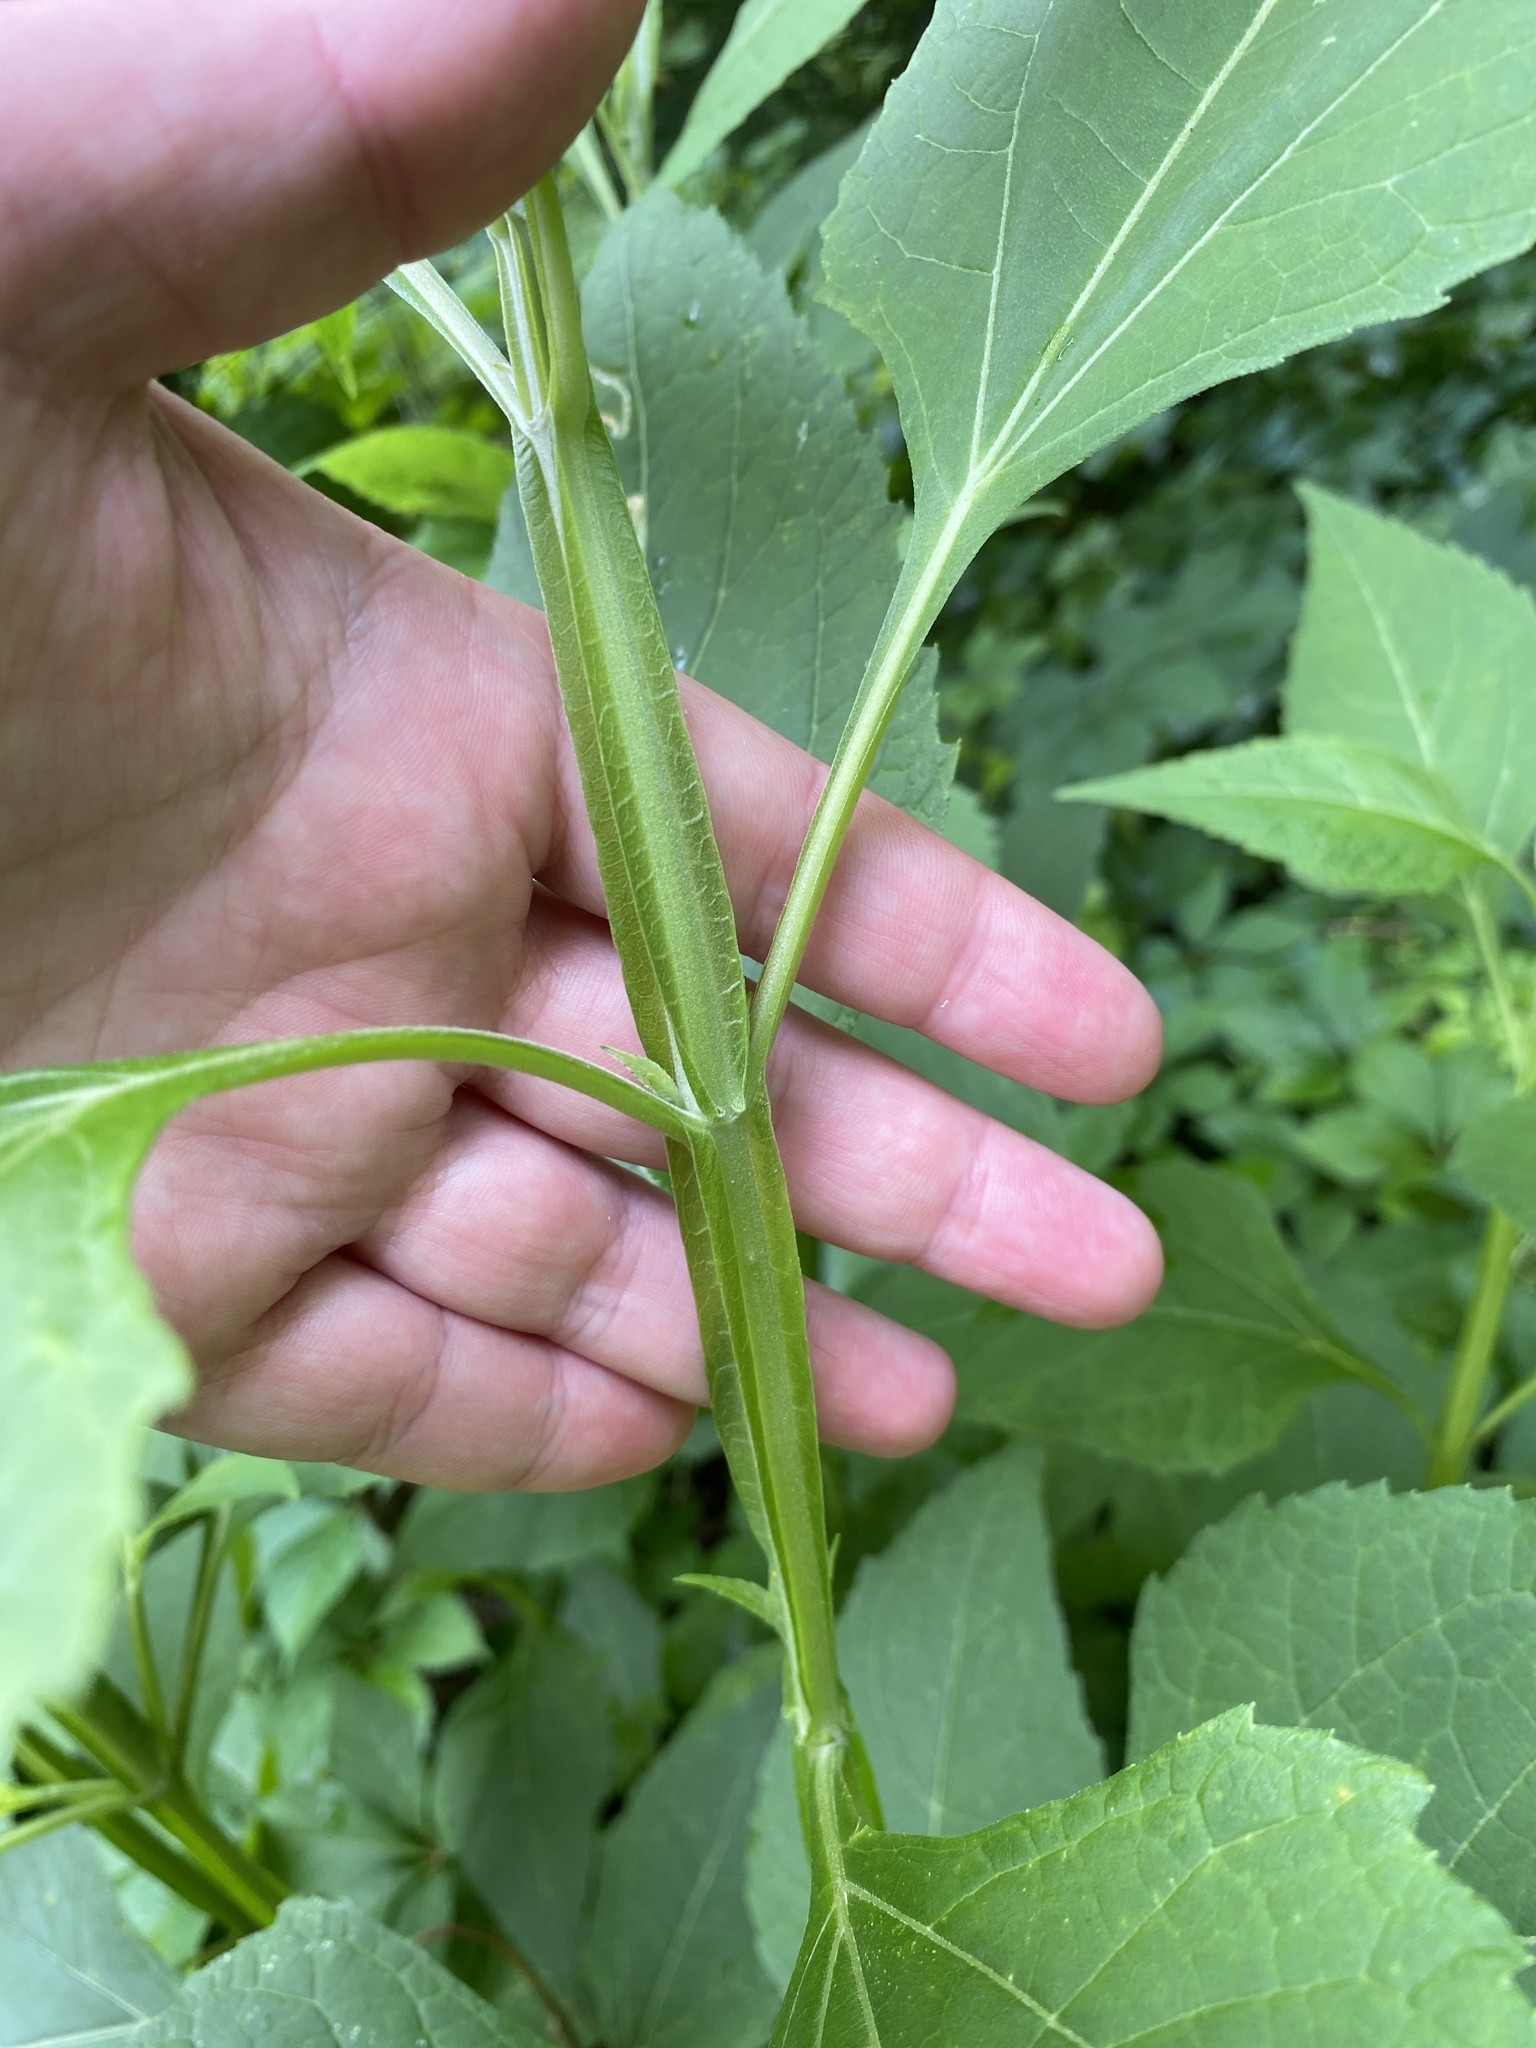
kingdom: Plantae
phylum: Tracheophyta
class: Magnoliopsida
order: Asterales
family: Asteraceae
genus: Verbesina
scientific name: Verbesina occidentalis
